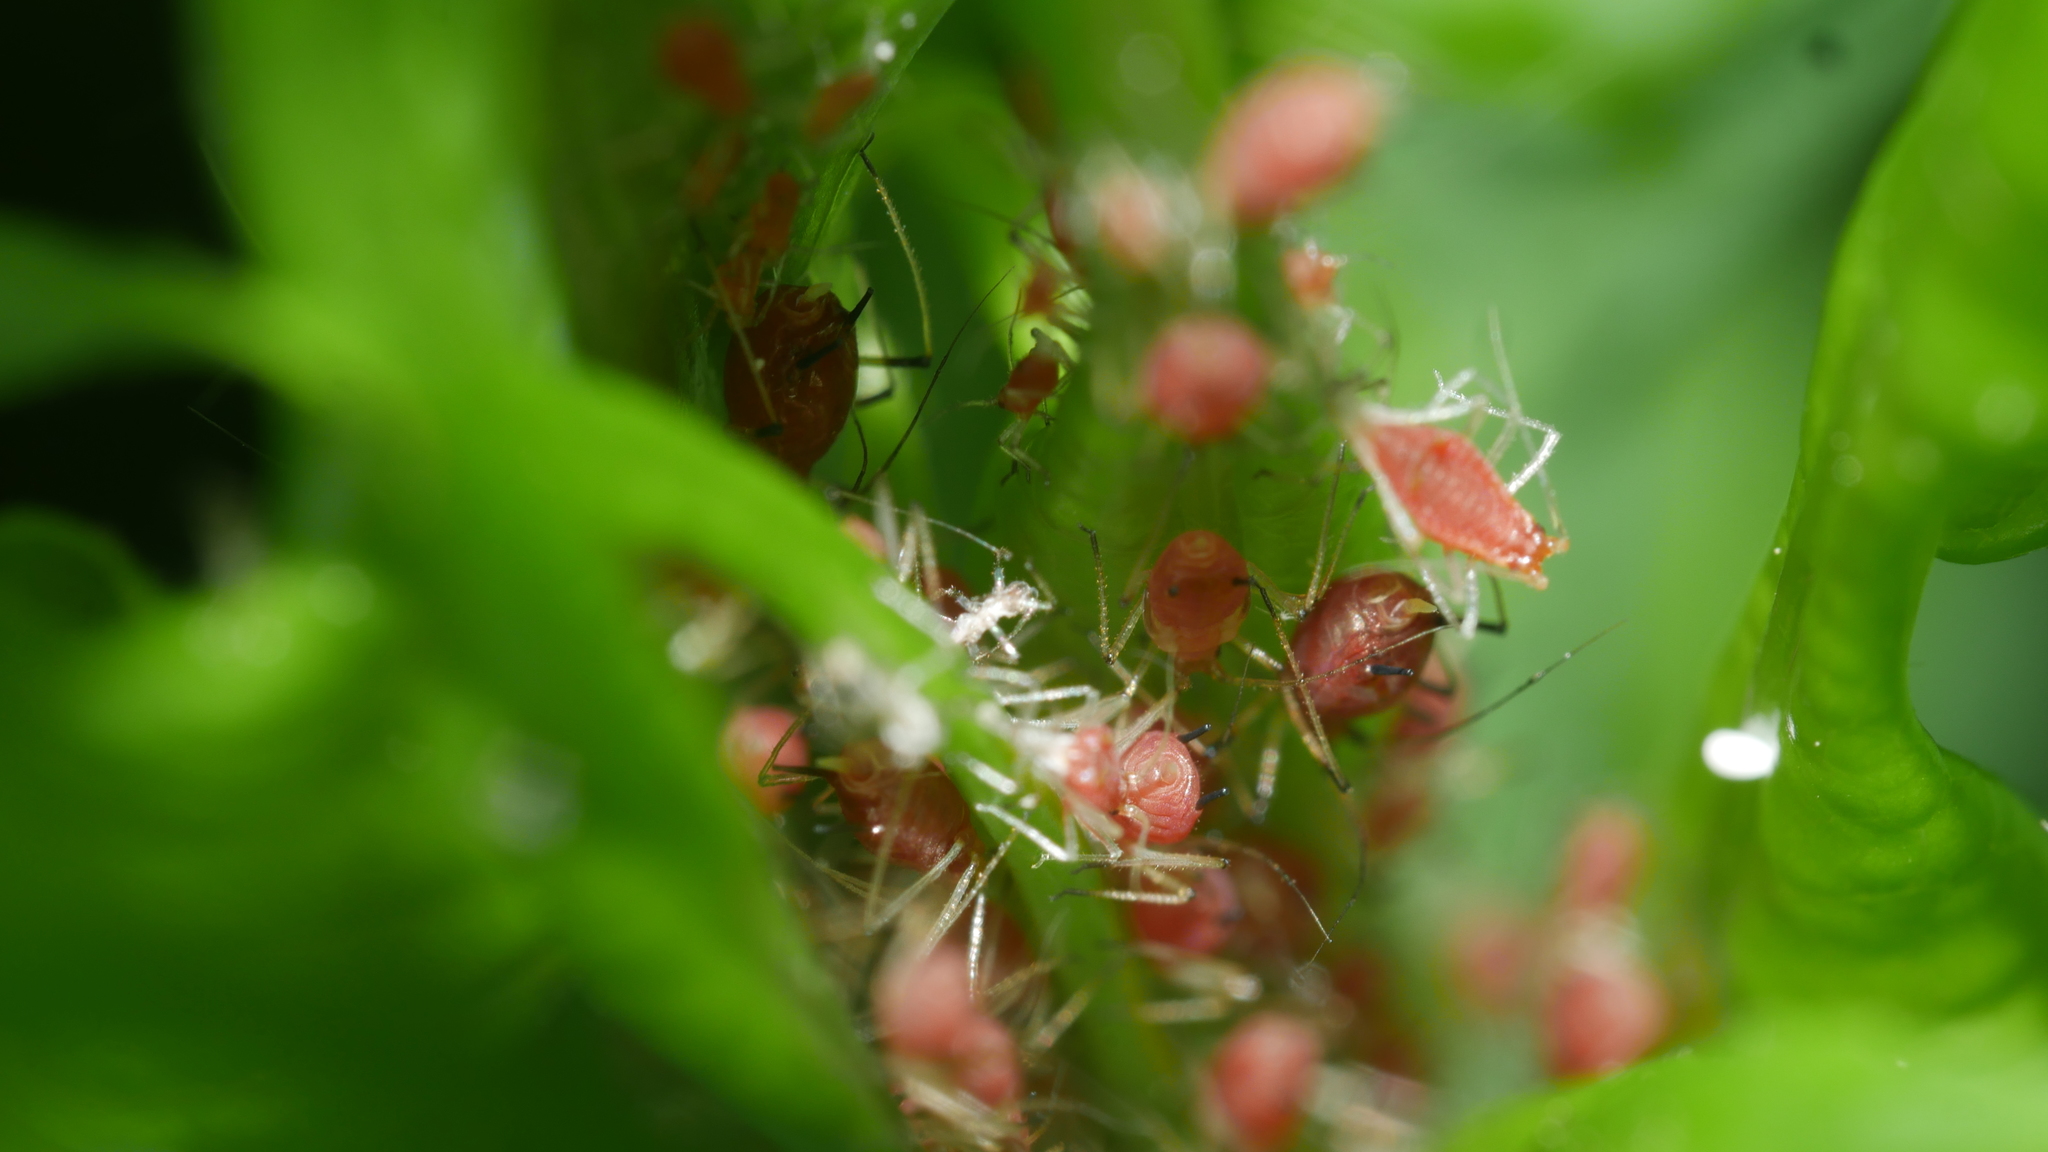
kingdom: Animalia
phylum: Arthropoda
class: Insecta
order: Hemiptera
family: Aphididae
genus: Macrosiphum
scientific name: Macrosiphum rosae
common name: Rose aphid
